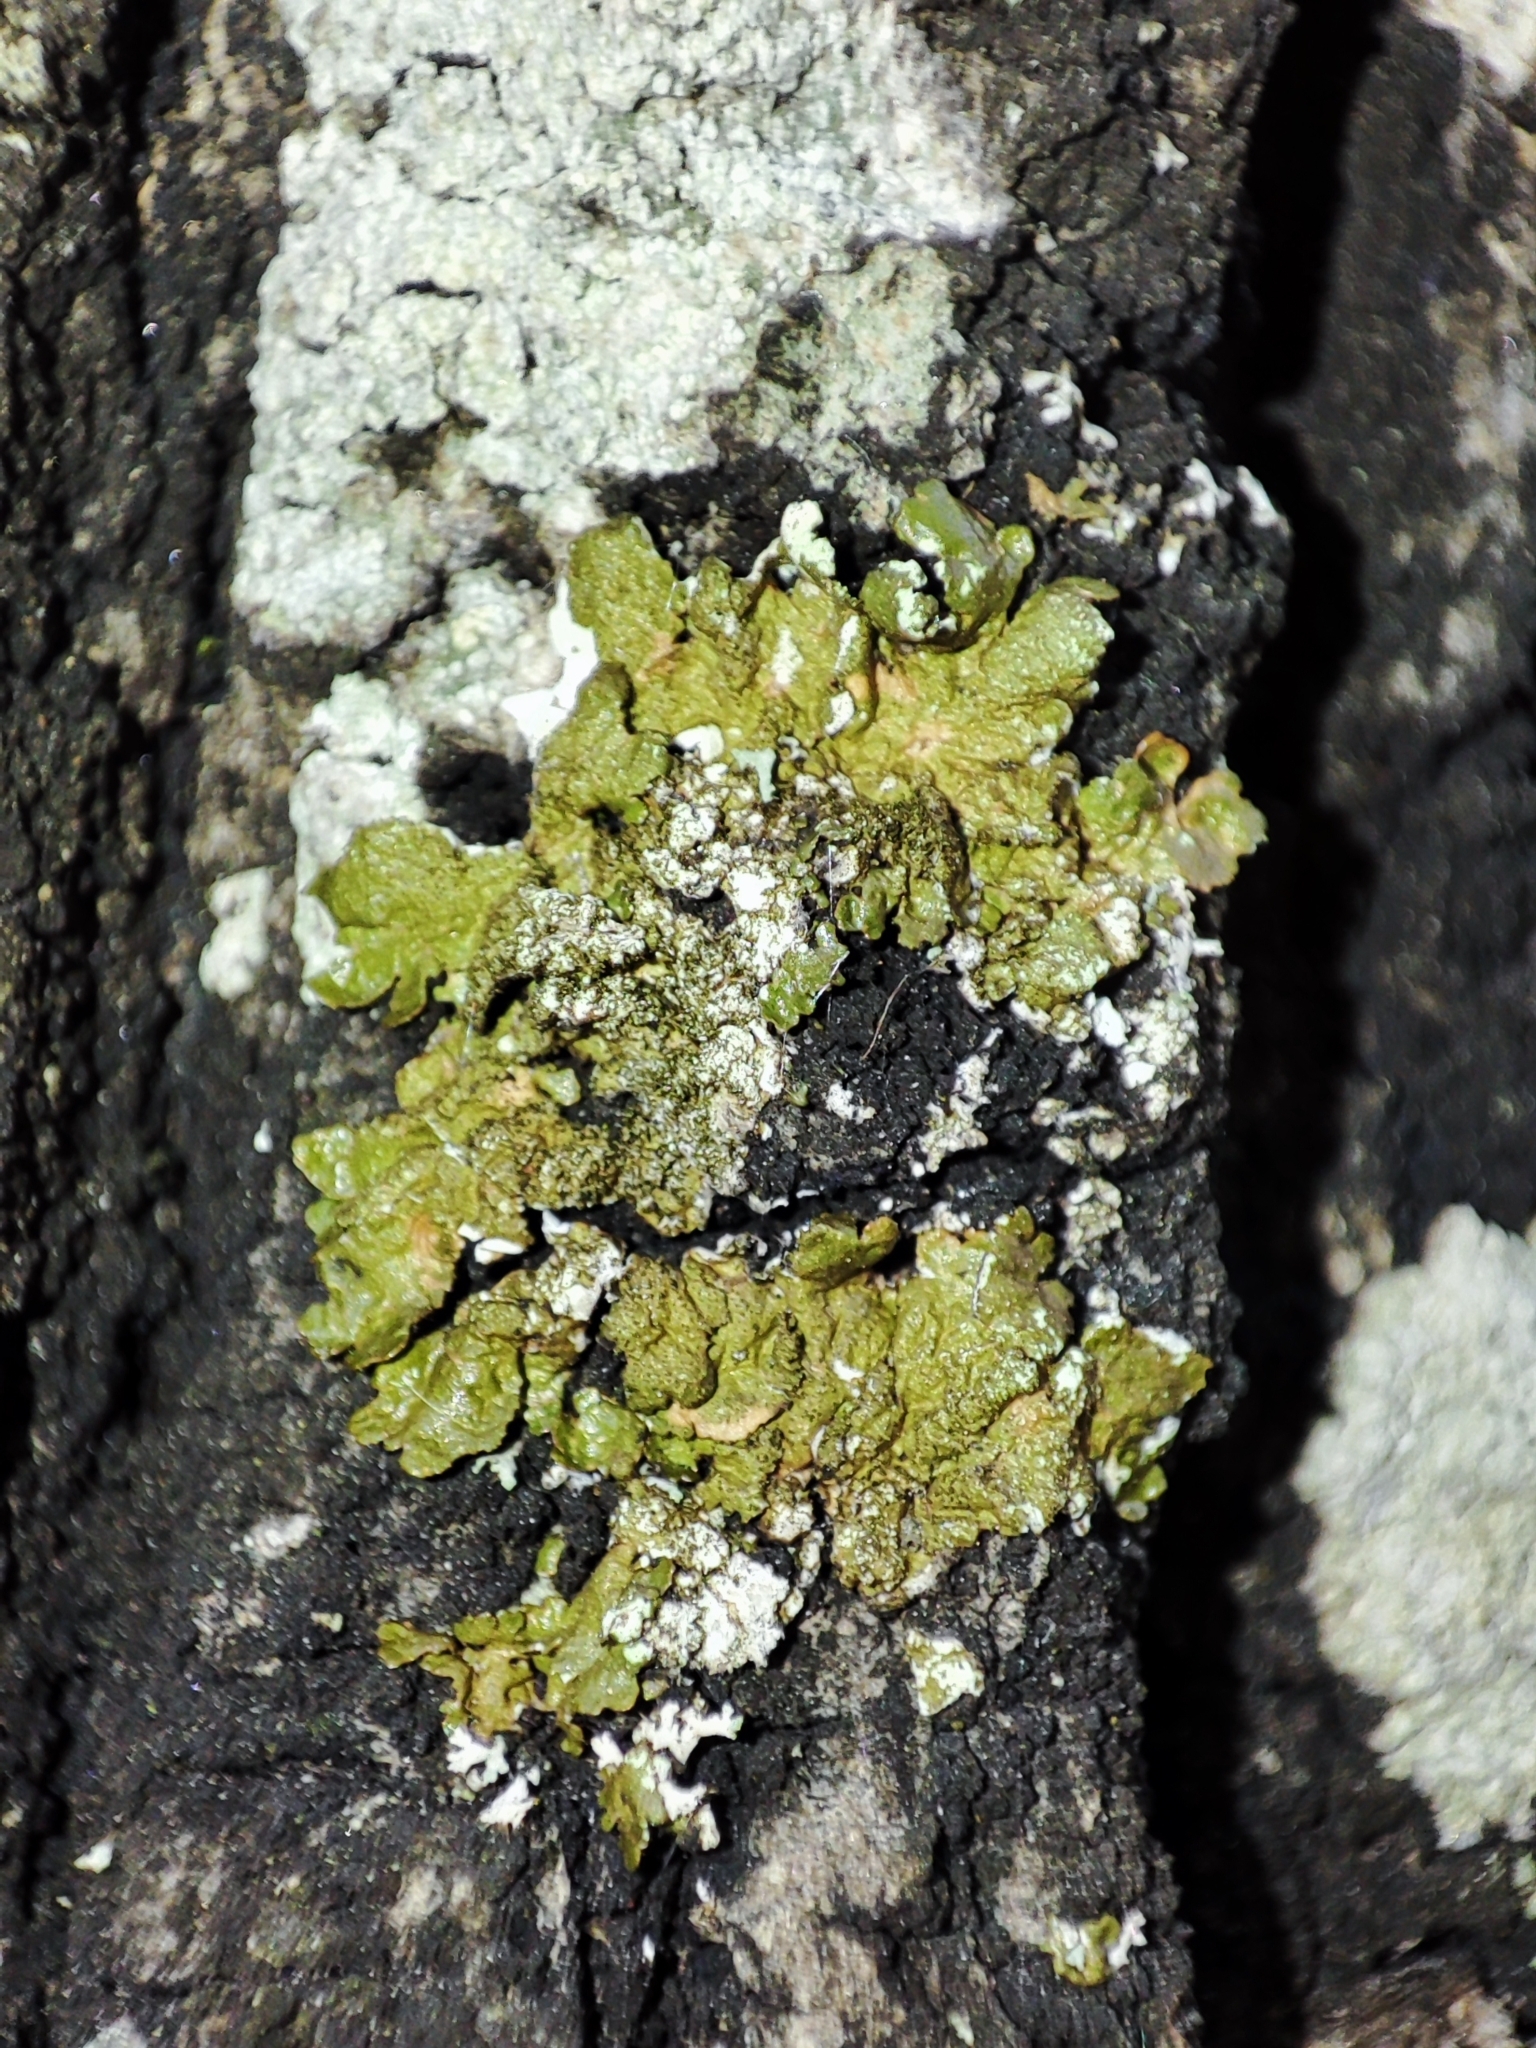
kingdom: Fungi
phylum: Ascomycota
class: Lecanoromycetes
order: Lecanorales
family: Parmeliaceae
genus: Melanelixia
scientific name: Melanelixia glabratula
